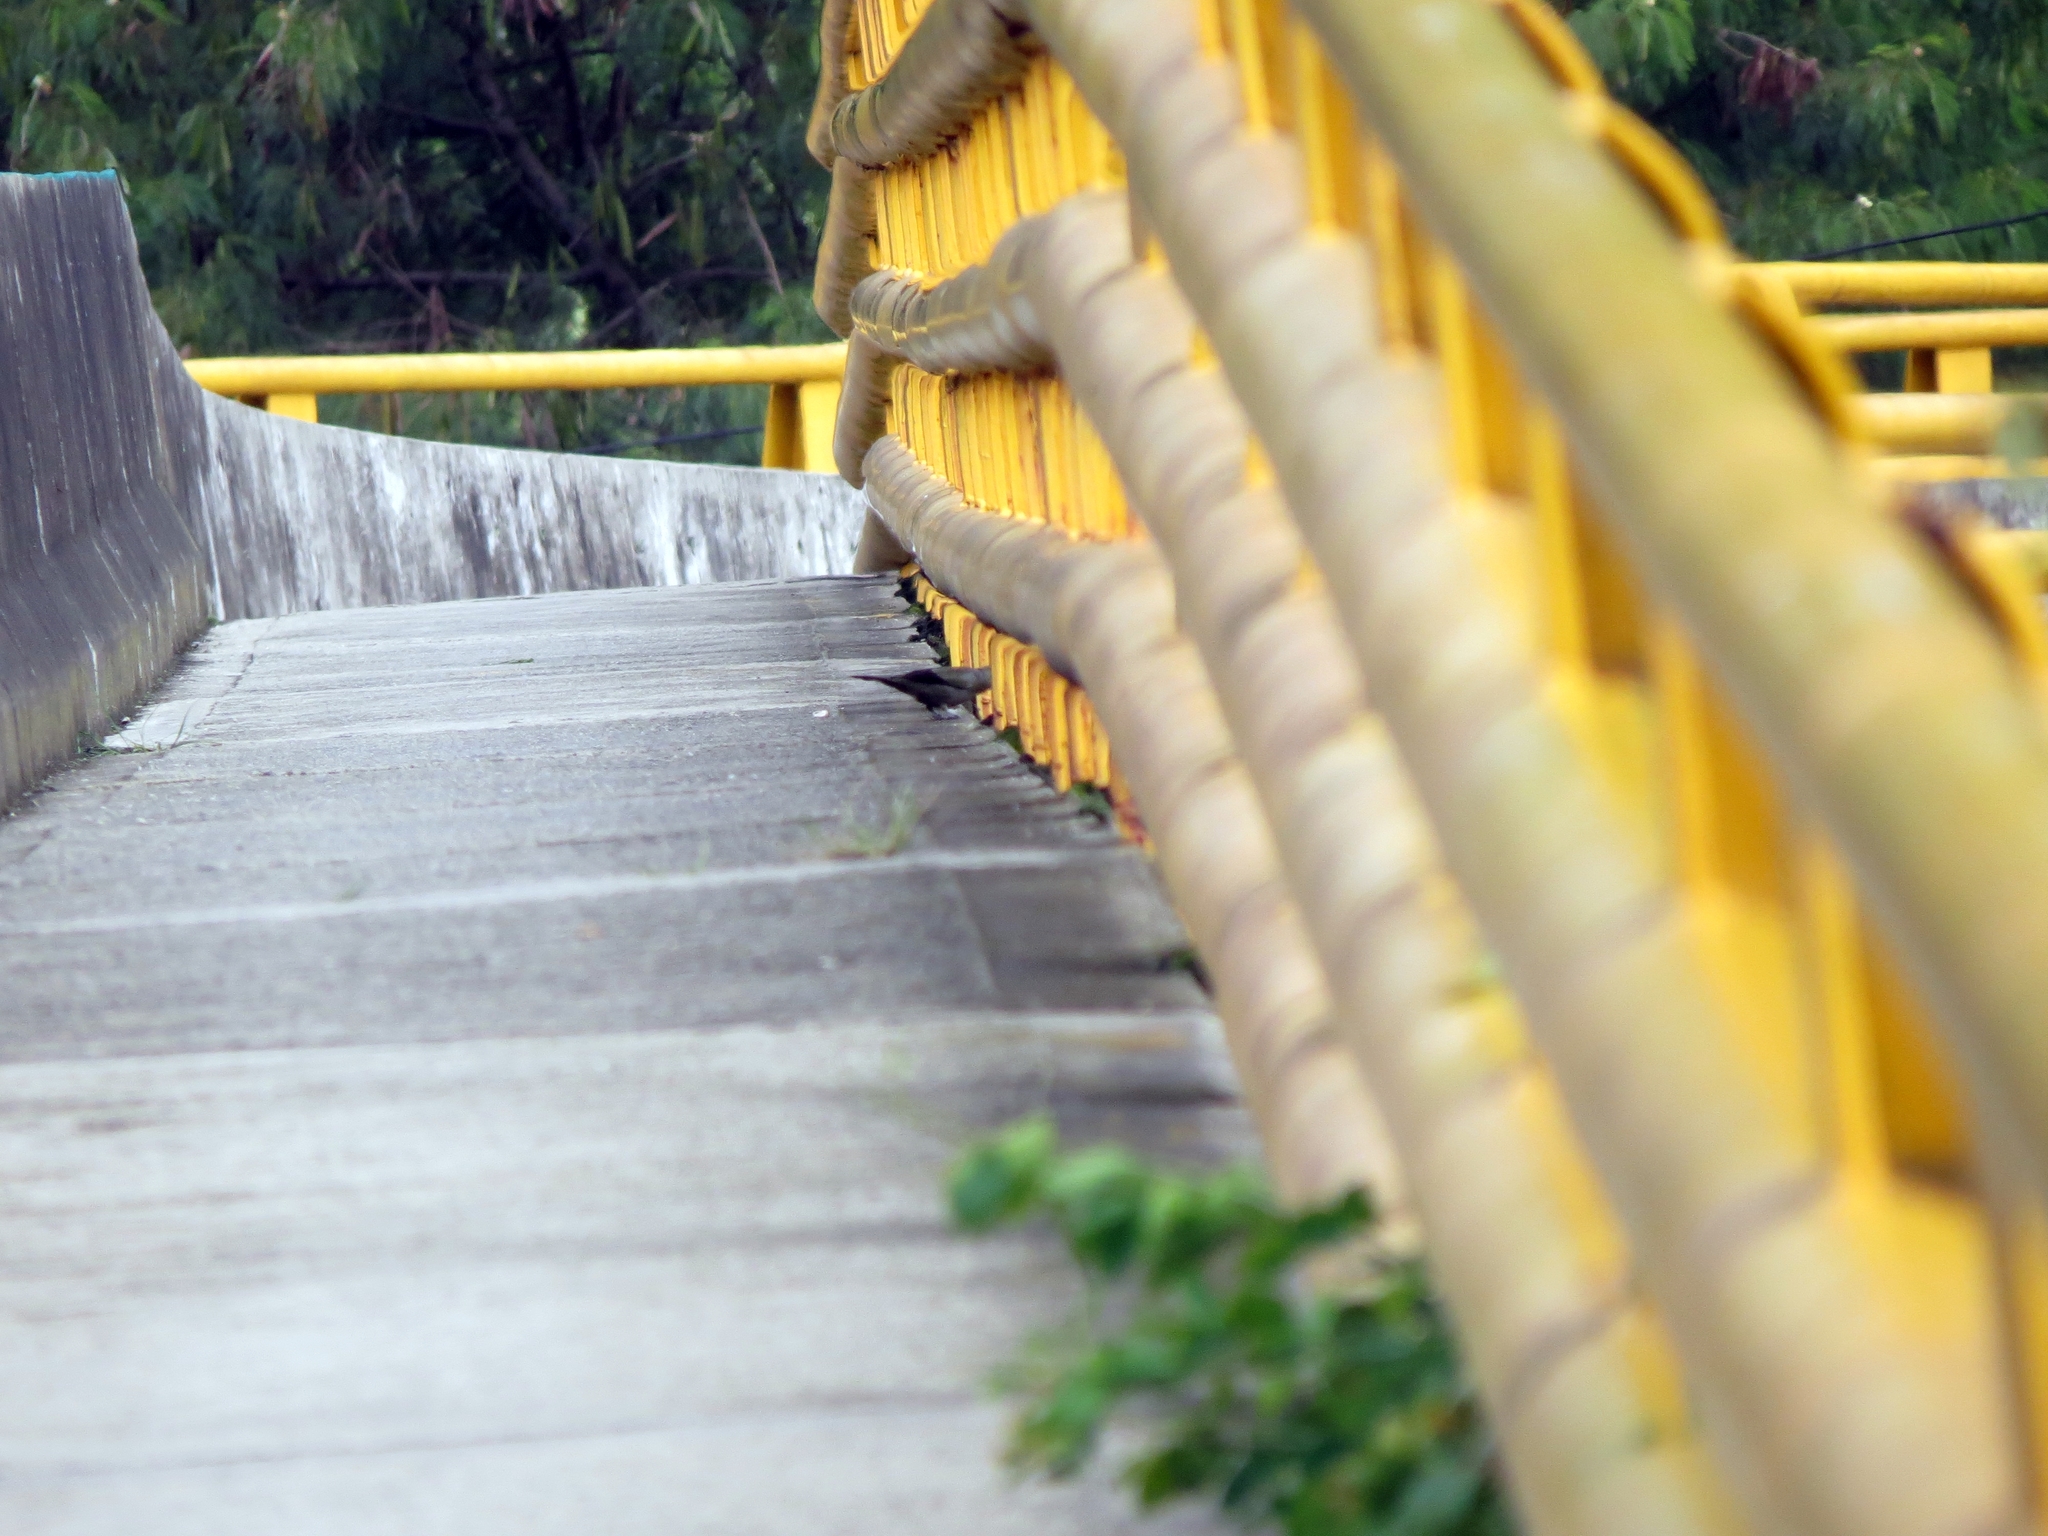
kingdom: Animalia
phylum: Chordata
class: Aves
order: Passeriformes
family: Thraupidae
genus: Thraupis
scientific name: Thraupis palmarum
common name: Palm tanager
